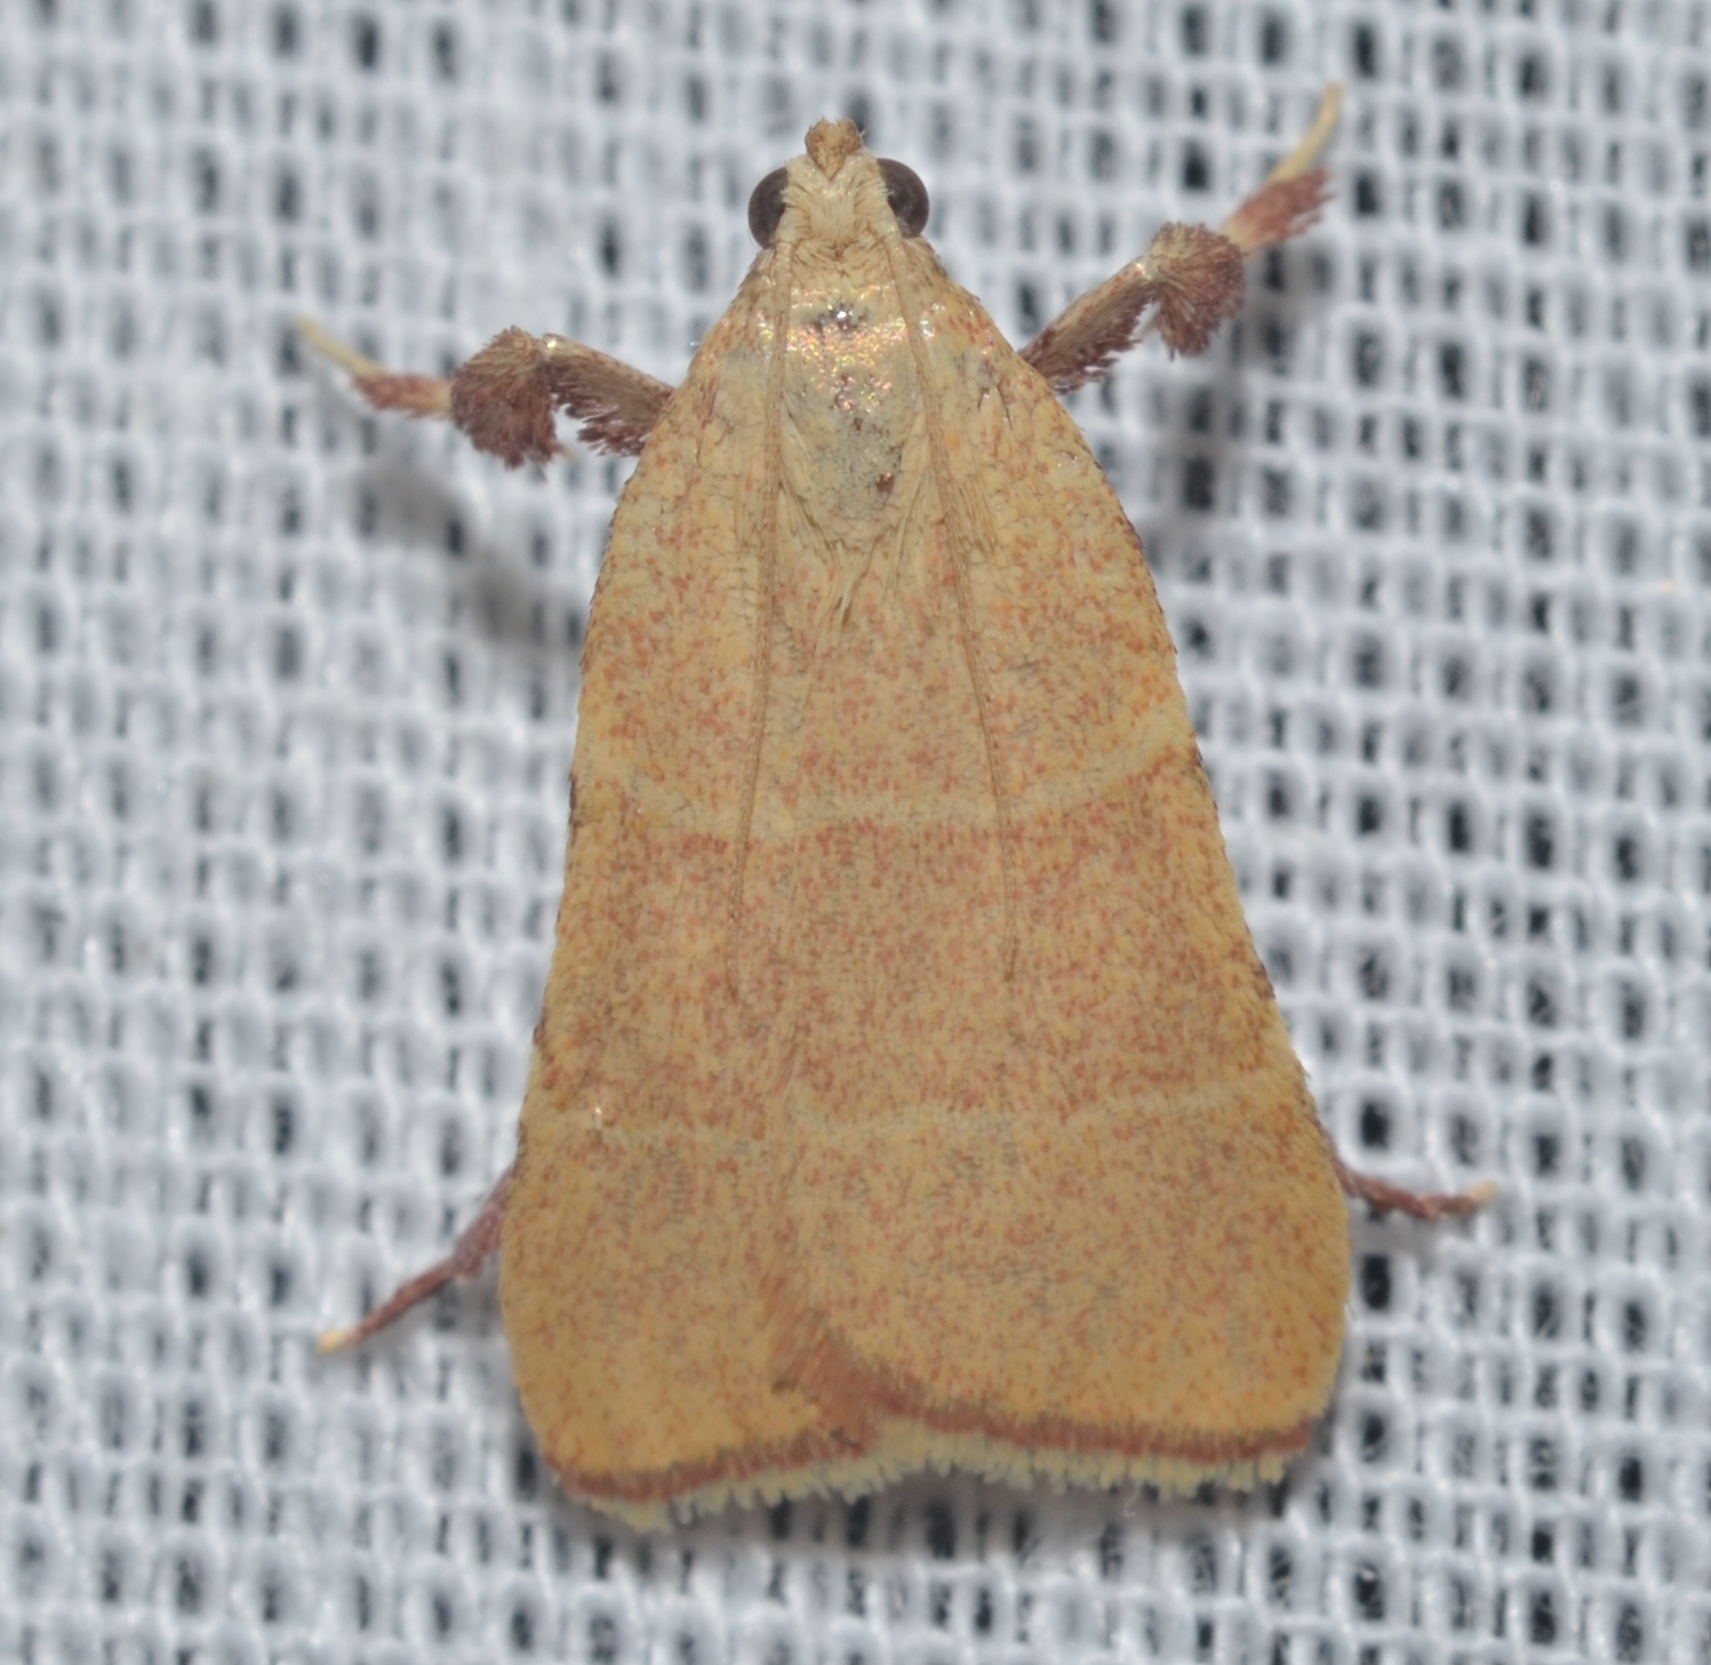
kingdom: Animalia
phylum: Arthropoda
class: Insecta
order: Lepidoptera
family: Pyralidae
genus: Parachma
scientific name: Parachma ochracealis
